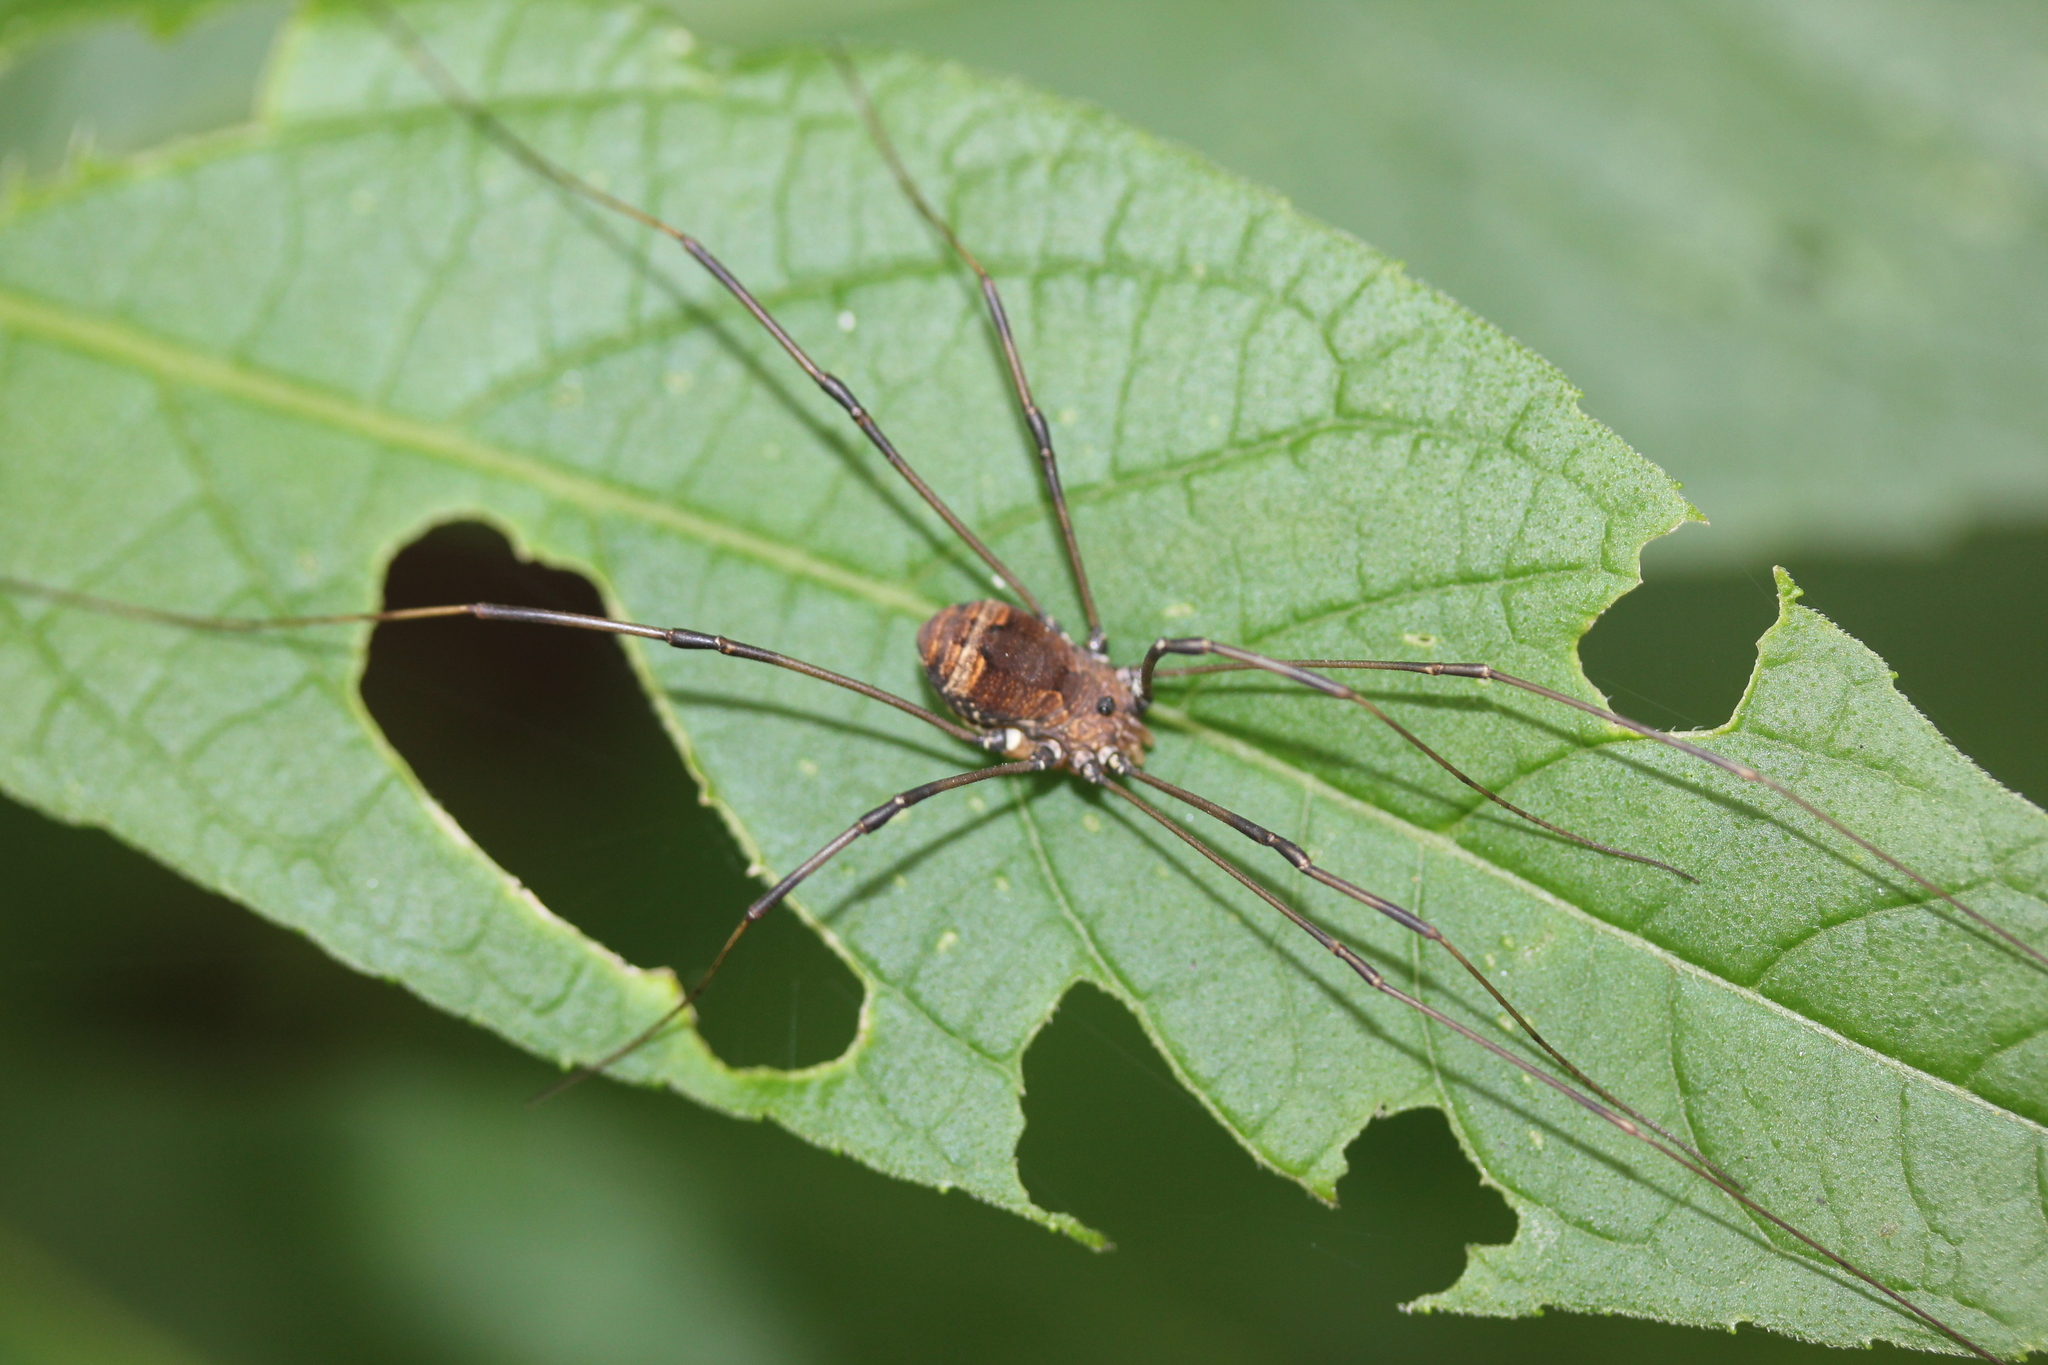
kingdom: Animalia
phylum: Arthropoda
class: Arachnida
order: Opiliones
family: Sclerosomatidae
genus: Leiobunum
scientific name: Leiobunum verrucosum
